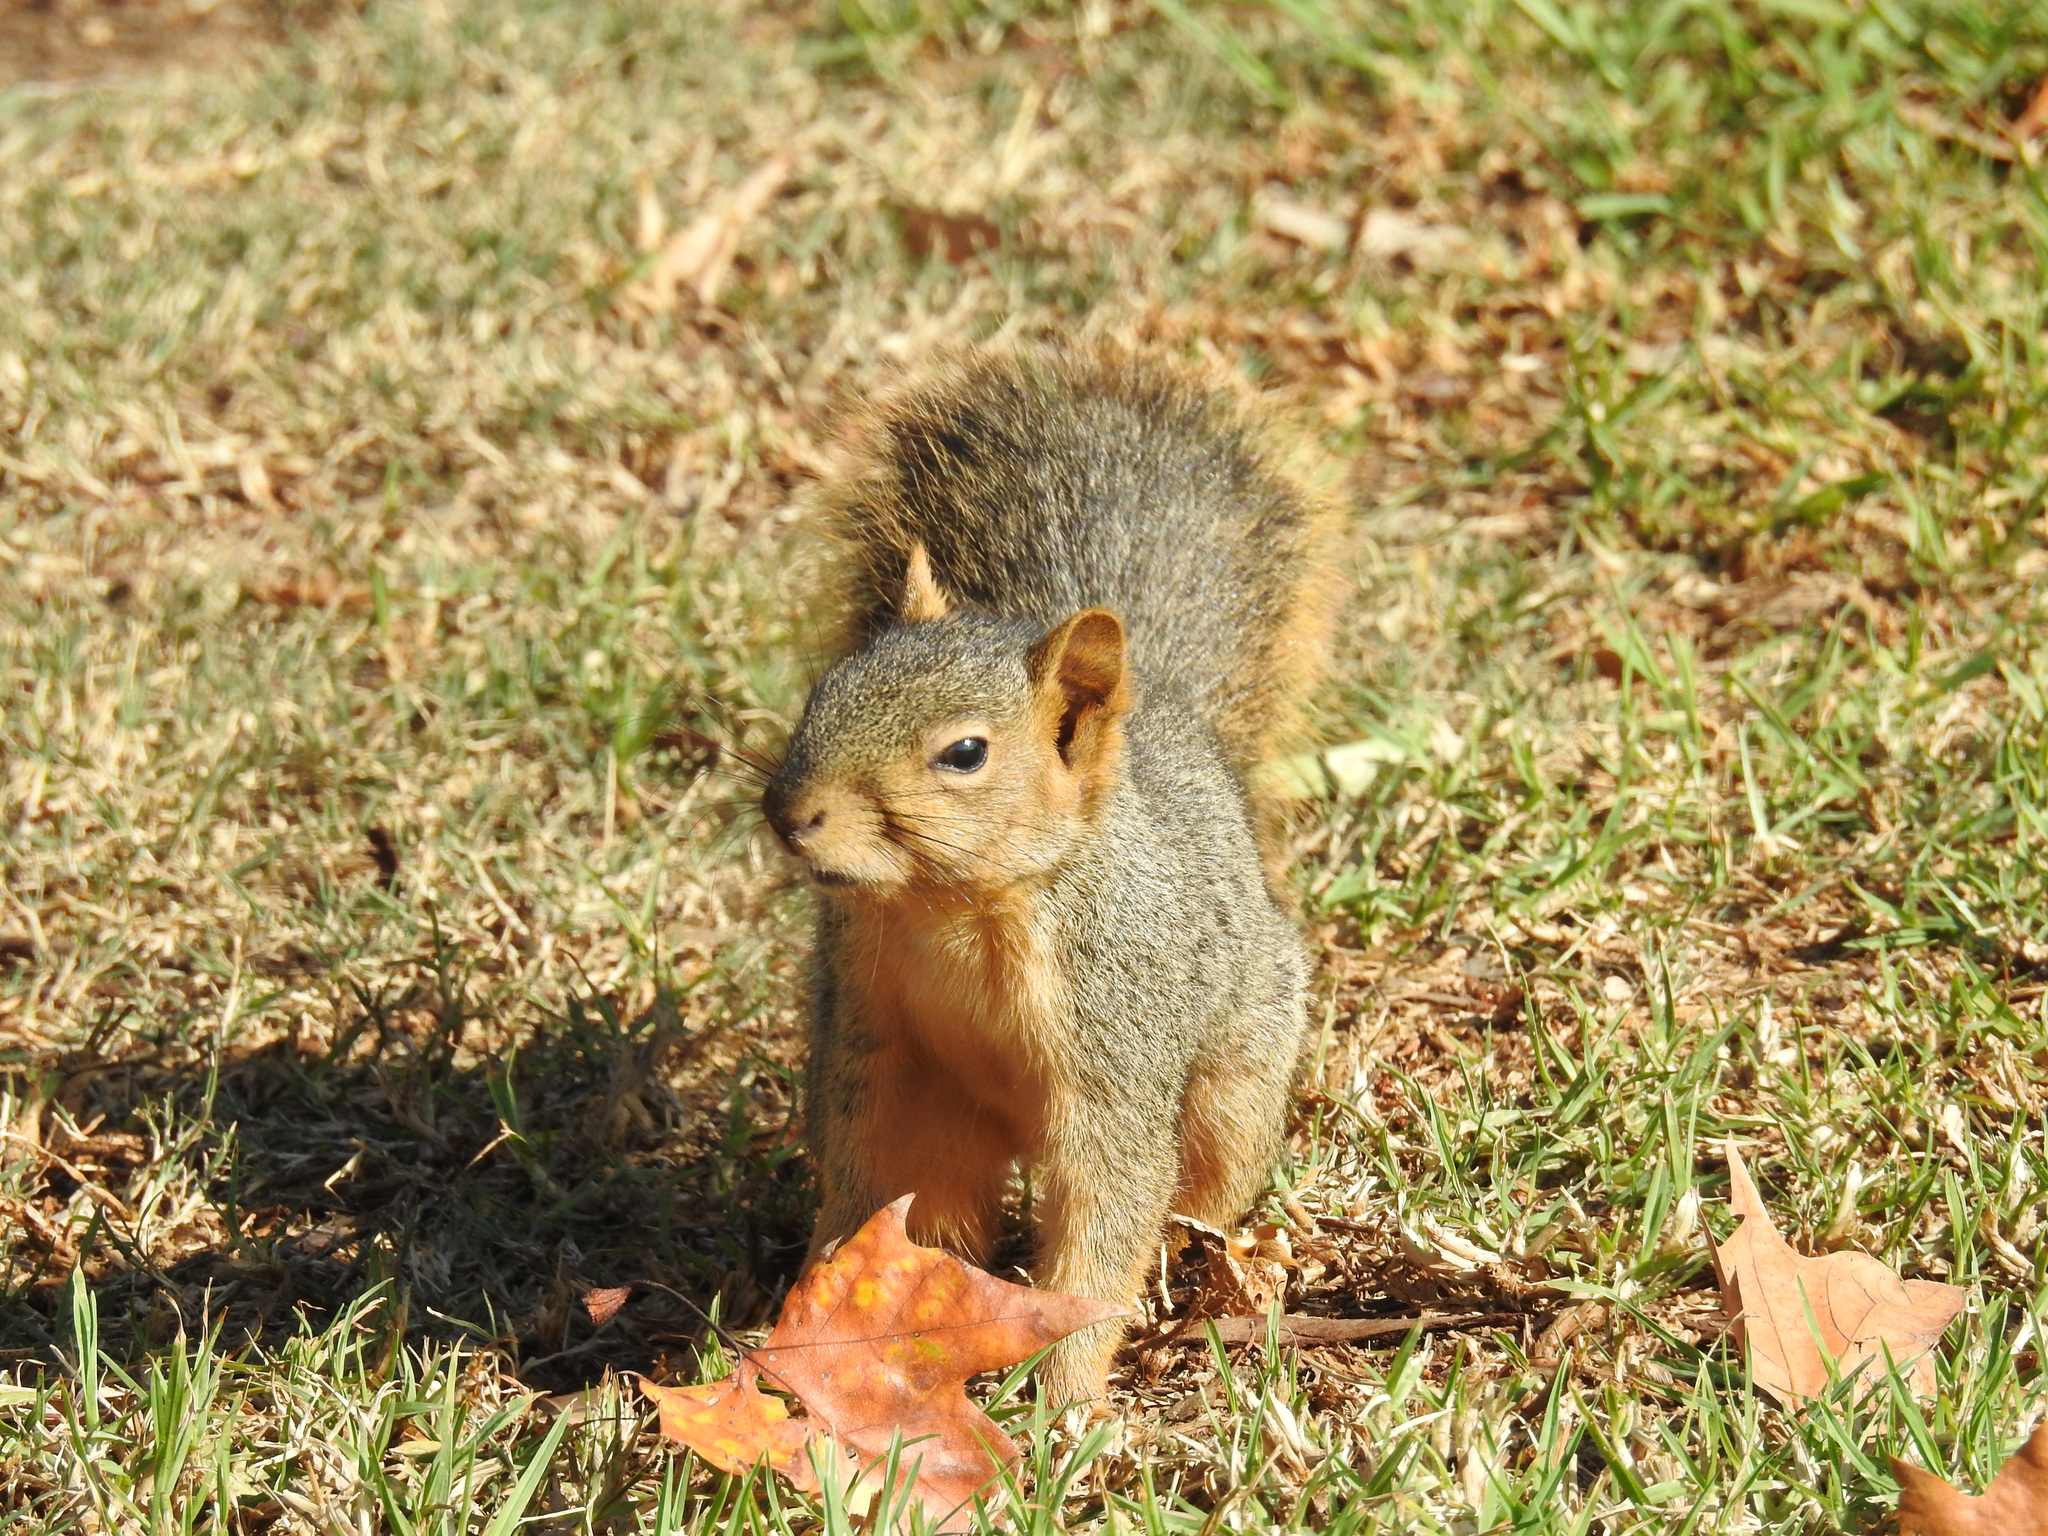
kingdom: Animalia
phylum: Chordata
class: Mammalia
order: Rodentia
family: Sciuridae
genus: Sciurus
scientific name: Sciurus niger
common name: Fox squirrel
